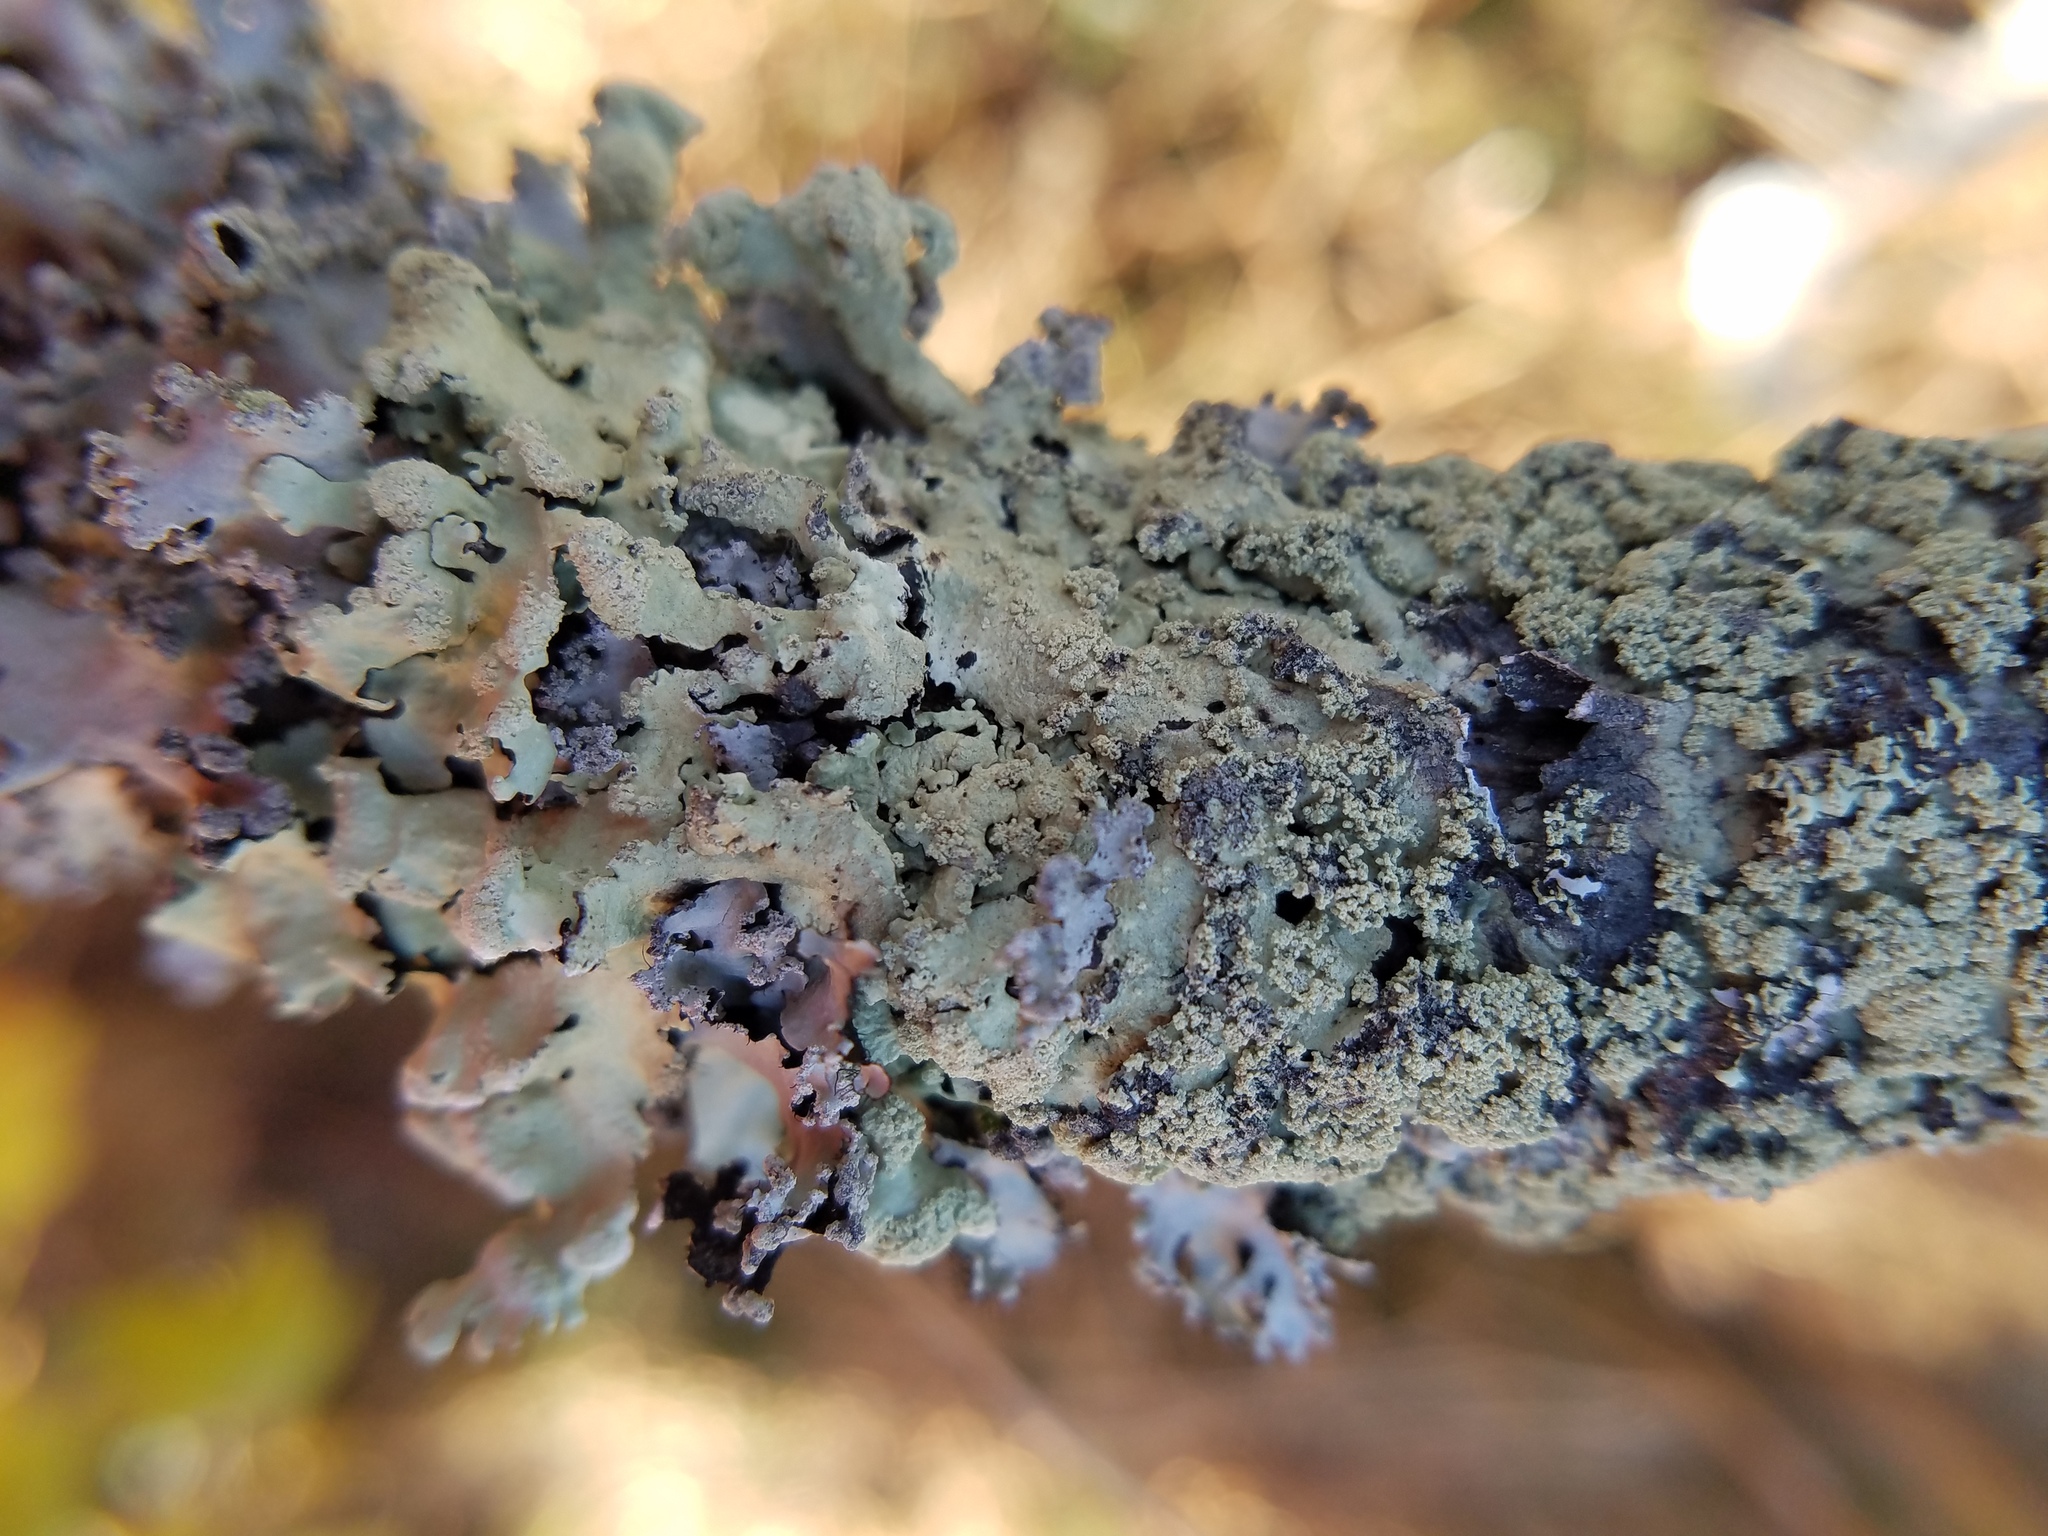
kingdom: Fungi
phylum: Ascomycota
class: Lecanoromycetes
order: Lecanorales
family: Parmeliaceae
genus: Flavoparmelia
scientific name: Flavoparmelia caperata
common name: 40-mile per hour lichen
